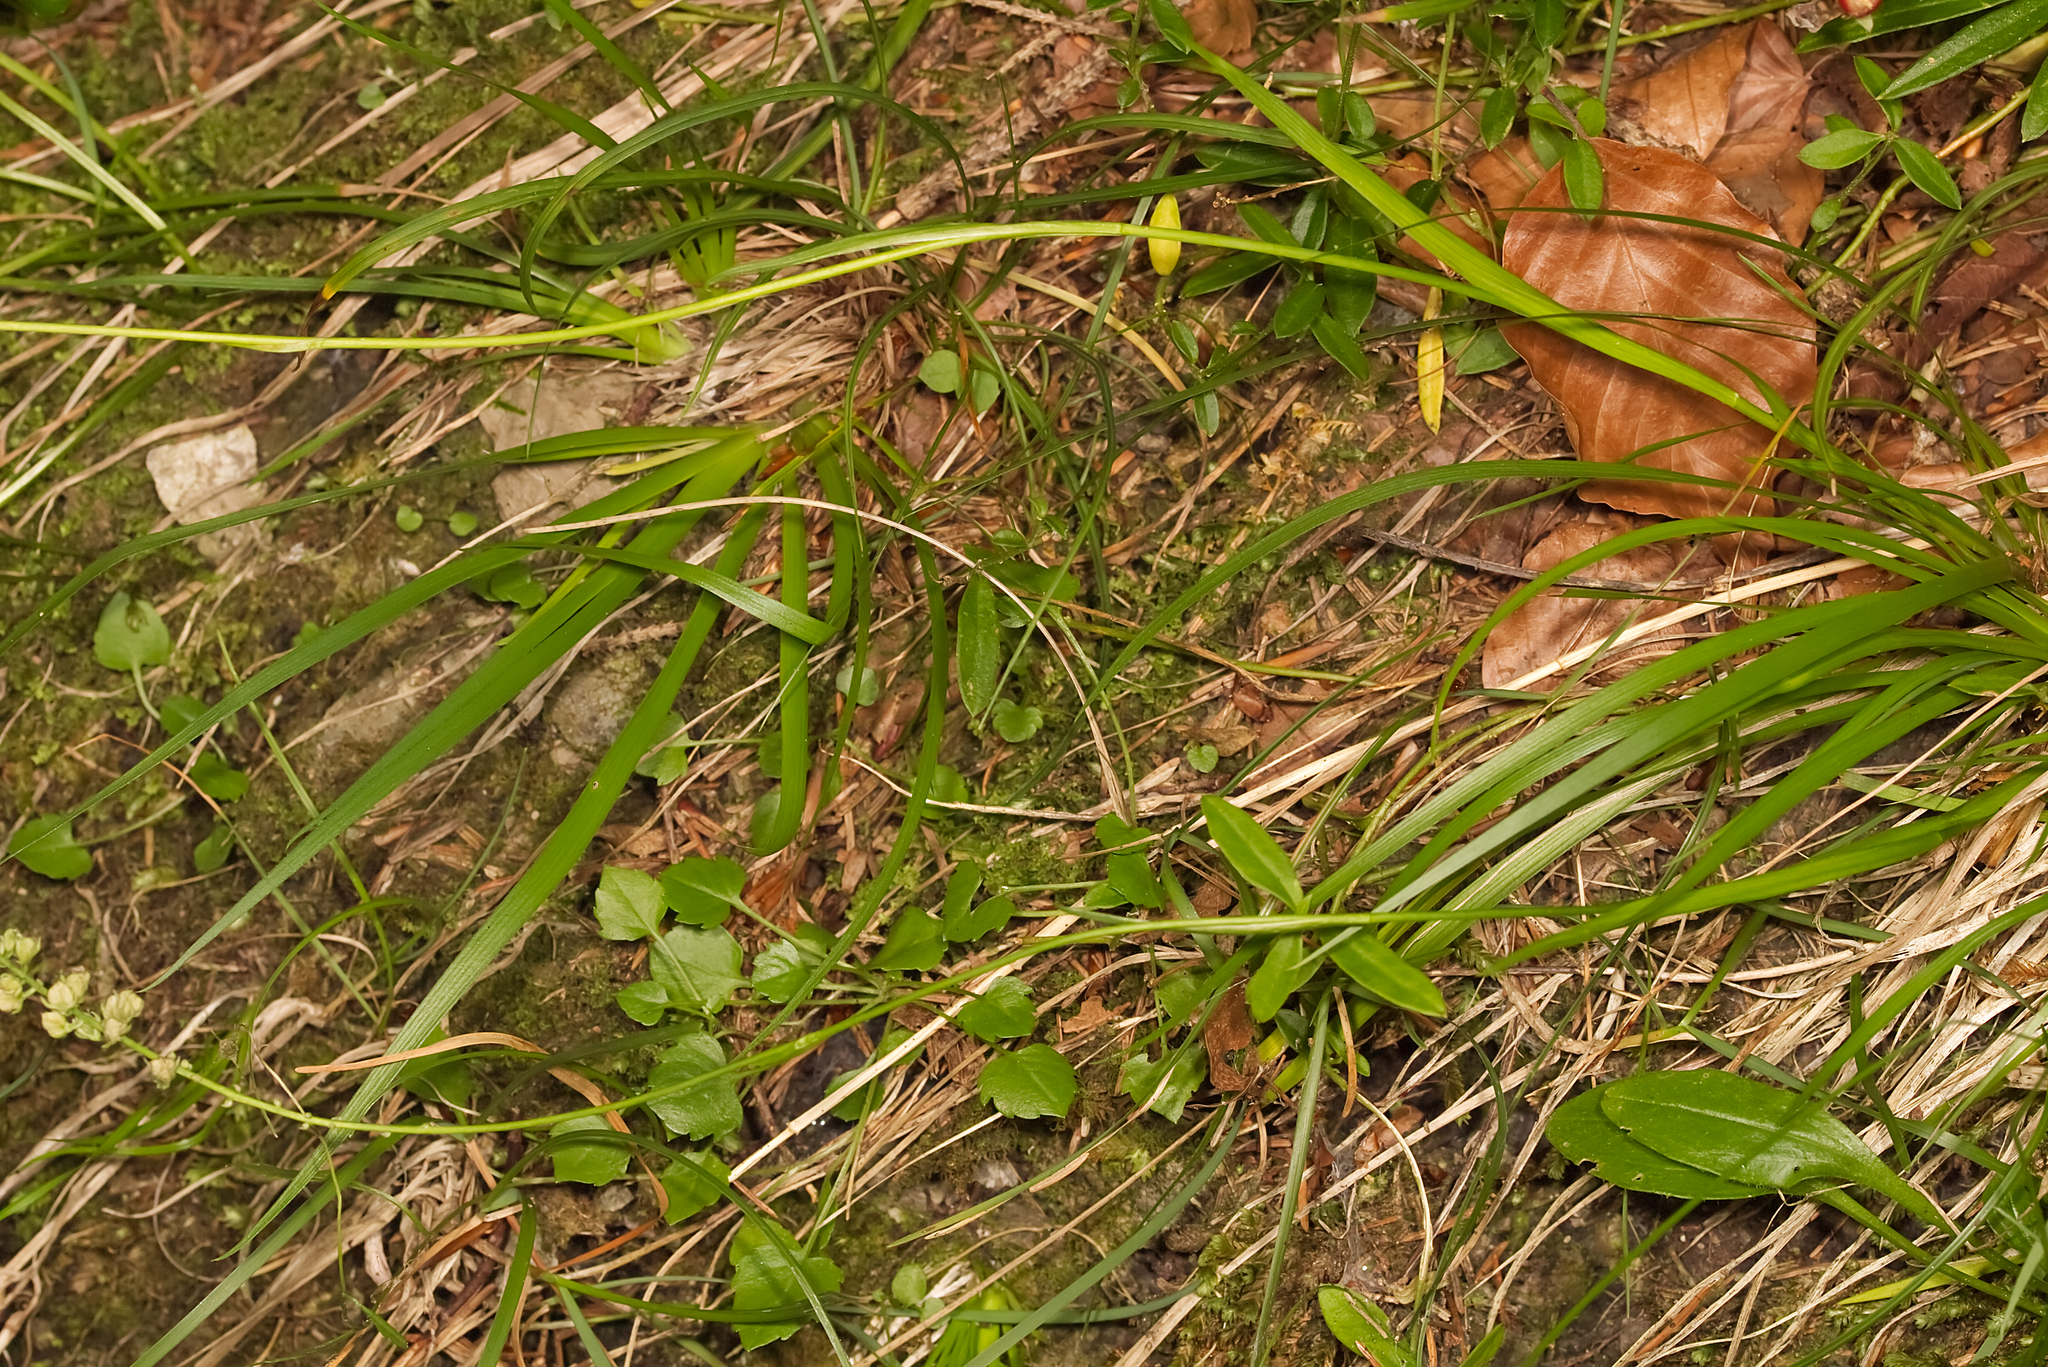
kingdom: Plantae
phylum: Tracheophyta
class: Liliopsida
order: Alismatales
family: Tofieldiaceae
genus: Tofieldia
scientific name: Tofieldia calyculata
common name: German-asphodel
